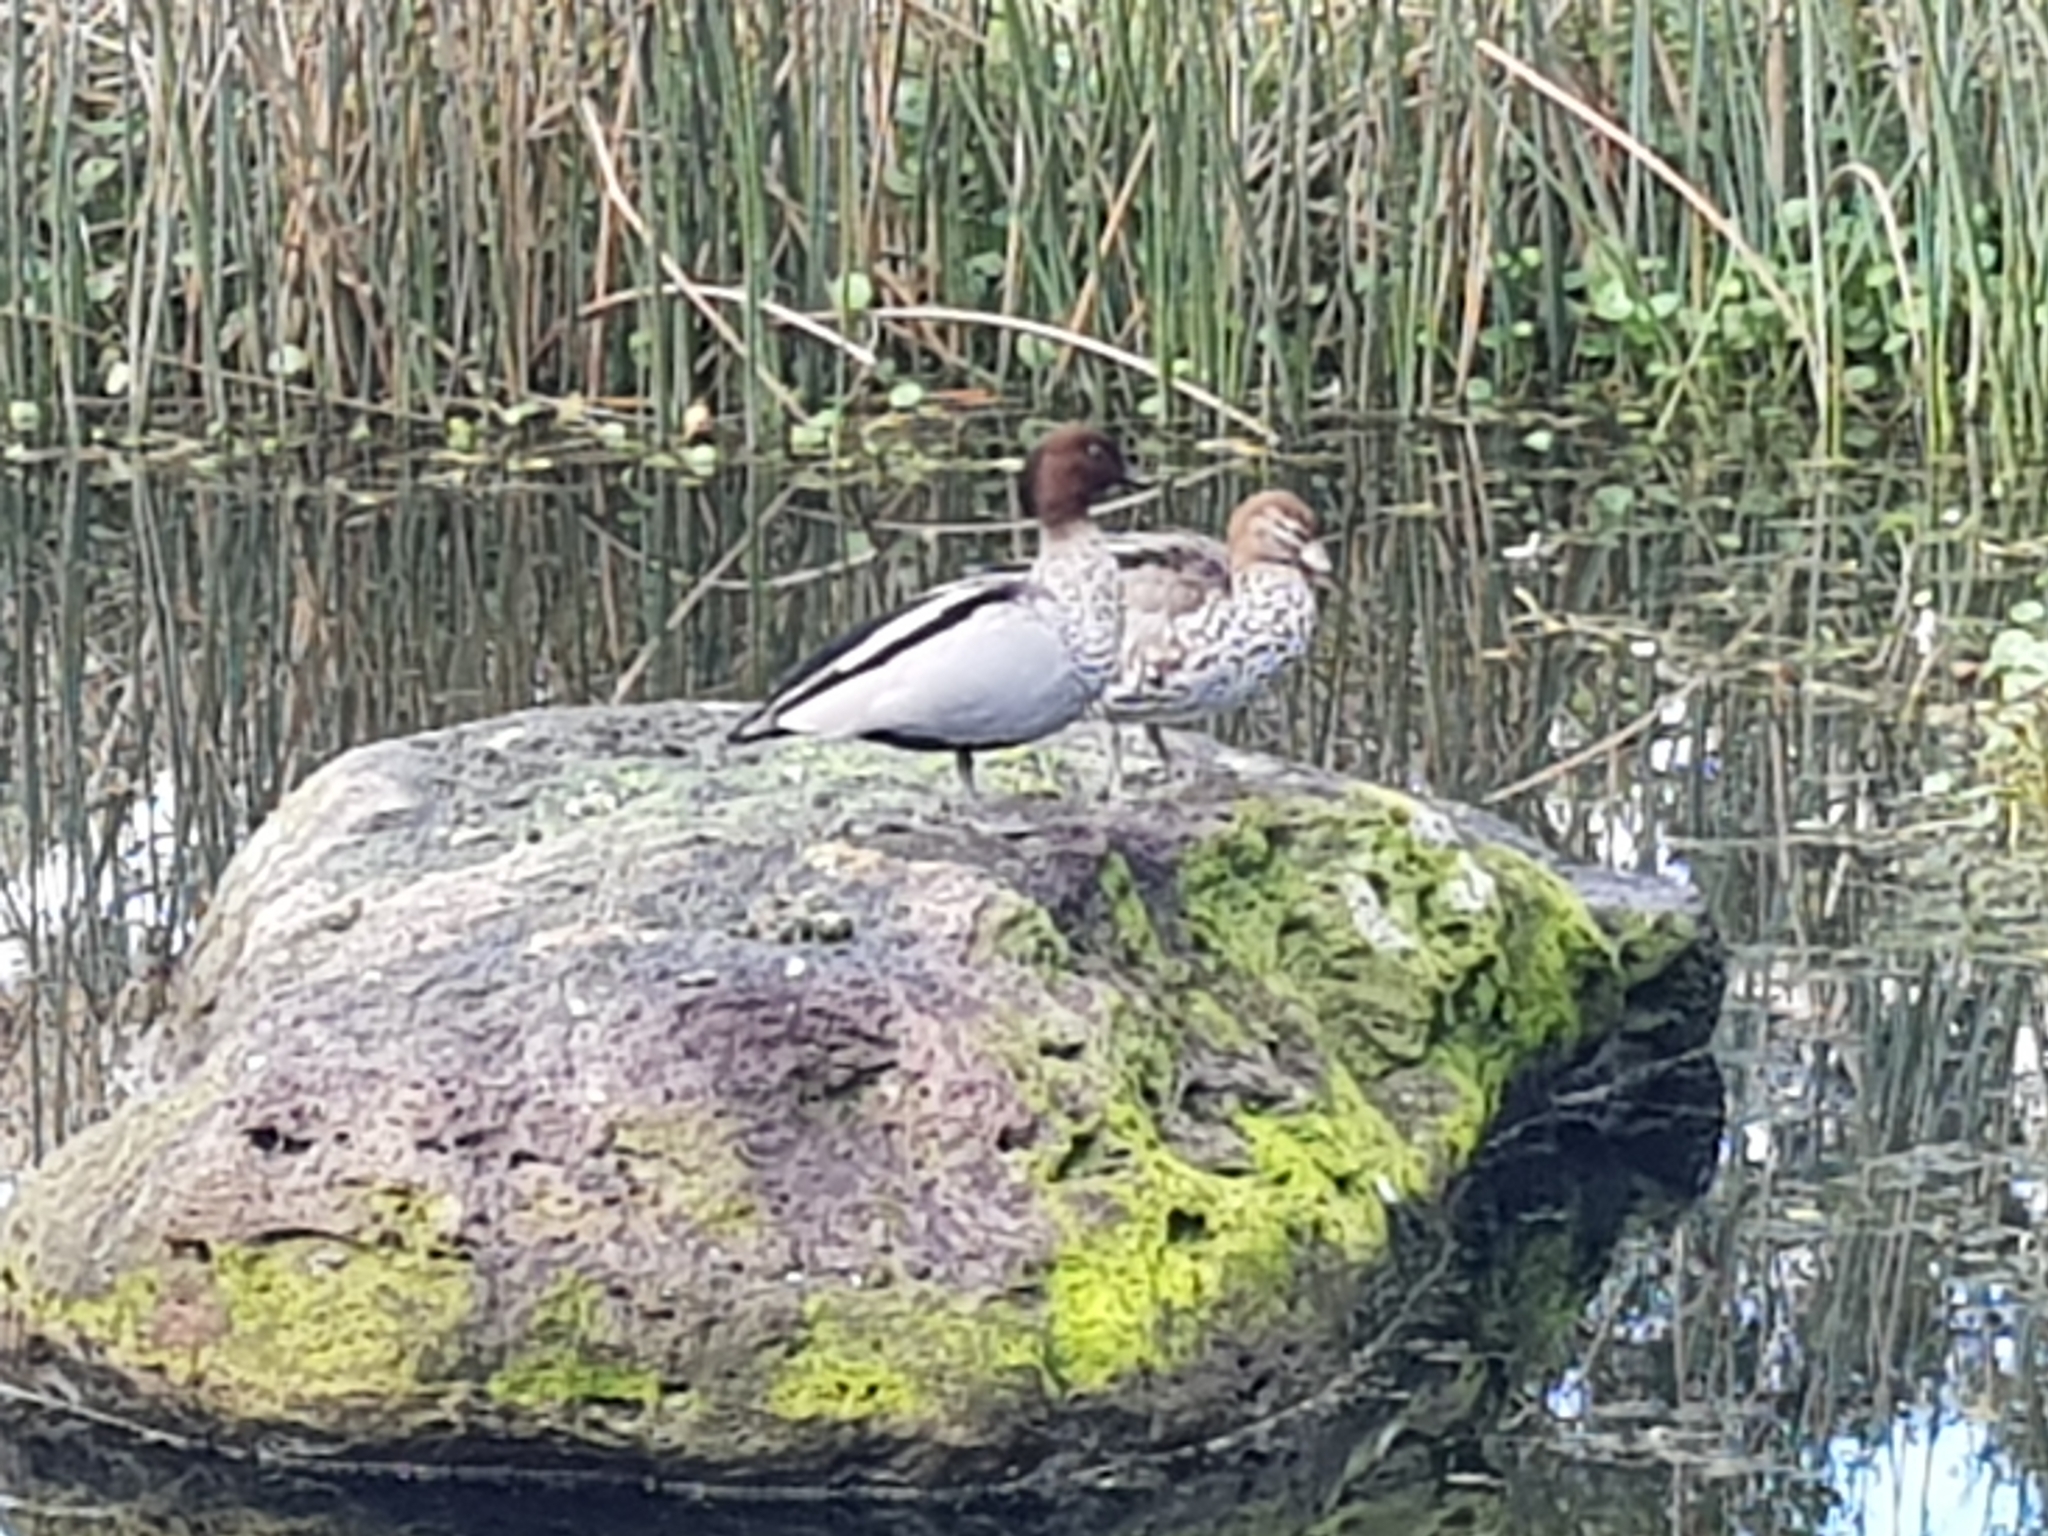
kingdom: Animalia
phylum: Chordata
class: Aves
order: Anseriformes
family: Anatidae
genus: Chenonetta
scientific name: Chenonetta jubata
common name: Maned duck
